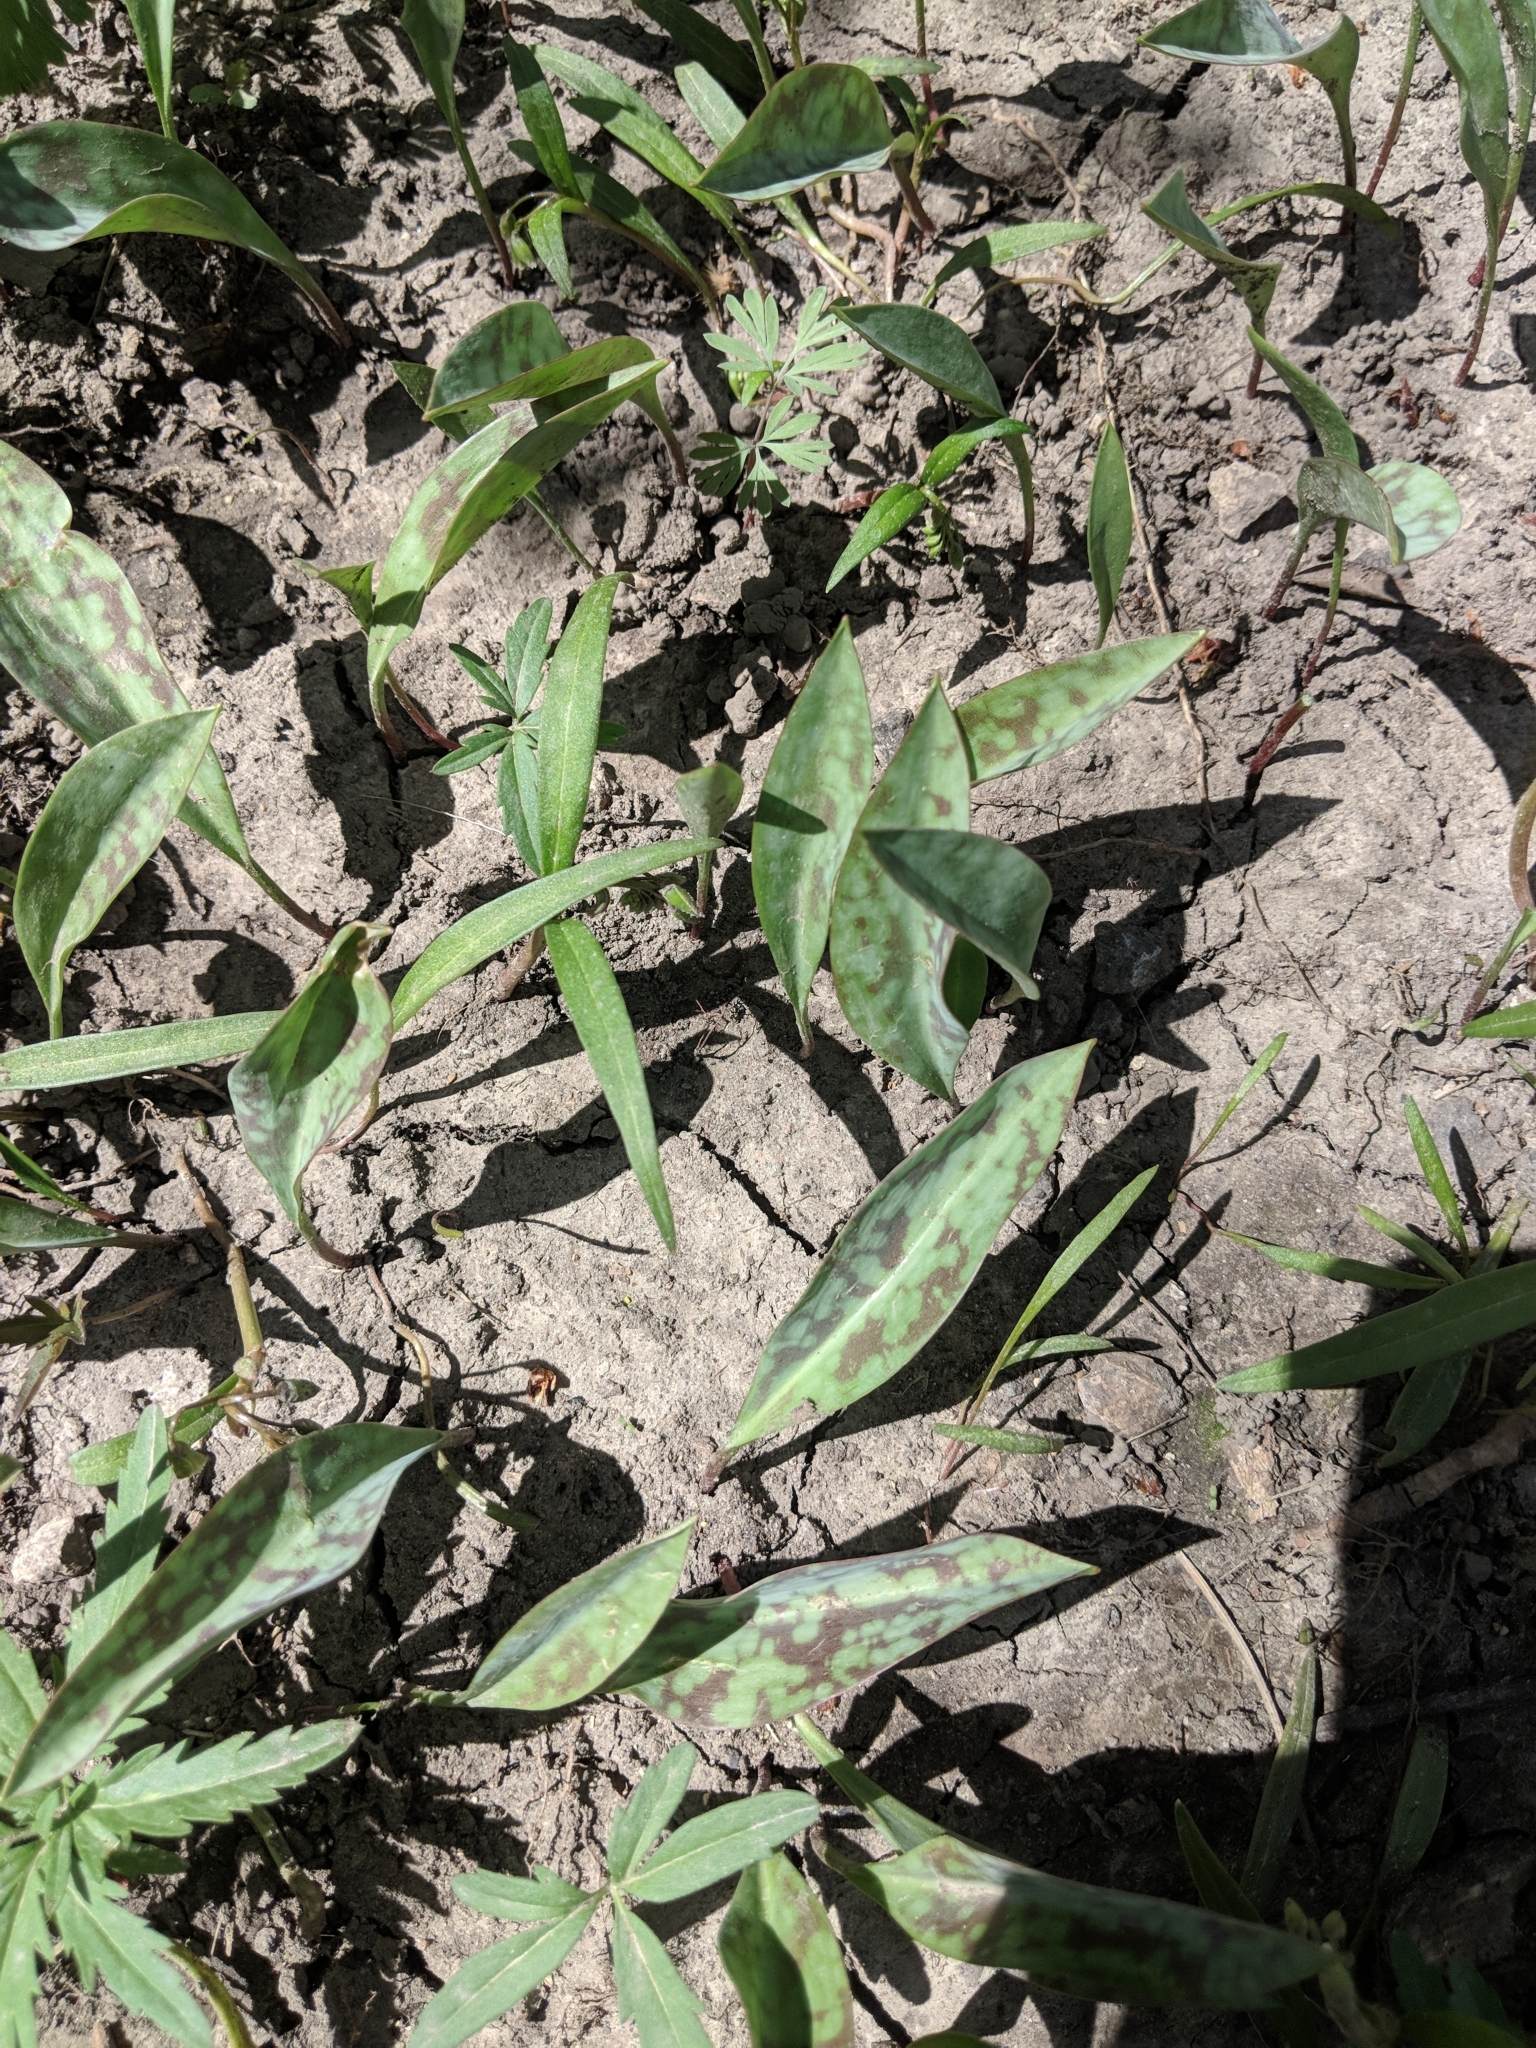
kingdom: Plantae
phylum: Tracheophyta
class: Liliopsida
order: Liliales
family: Liliaceae
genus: Erythronium
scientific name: Erythronium albidum
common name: White trout-lily
